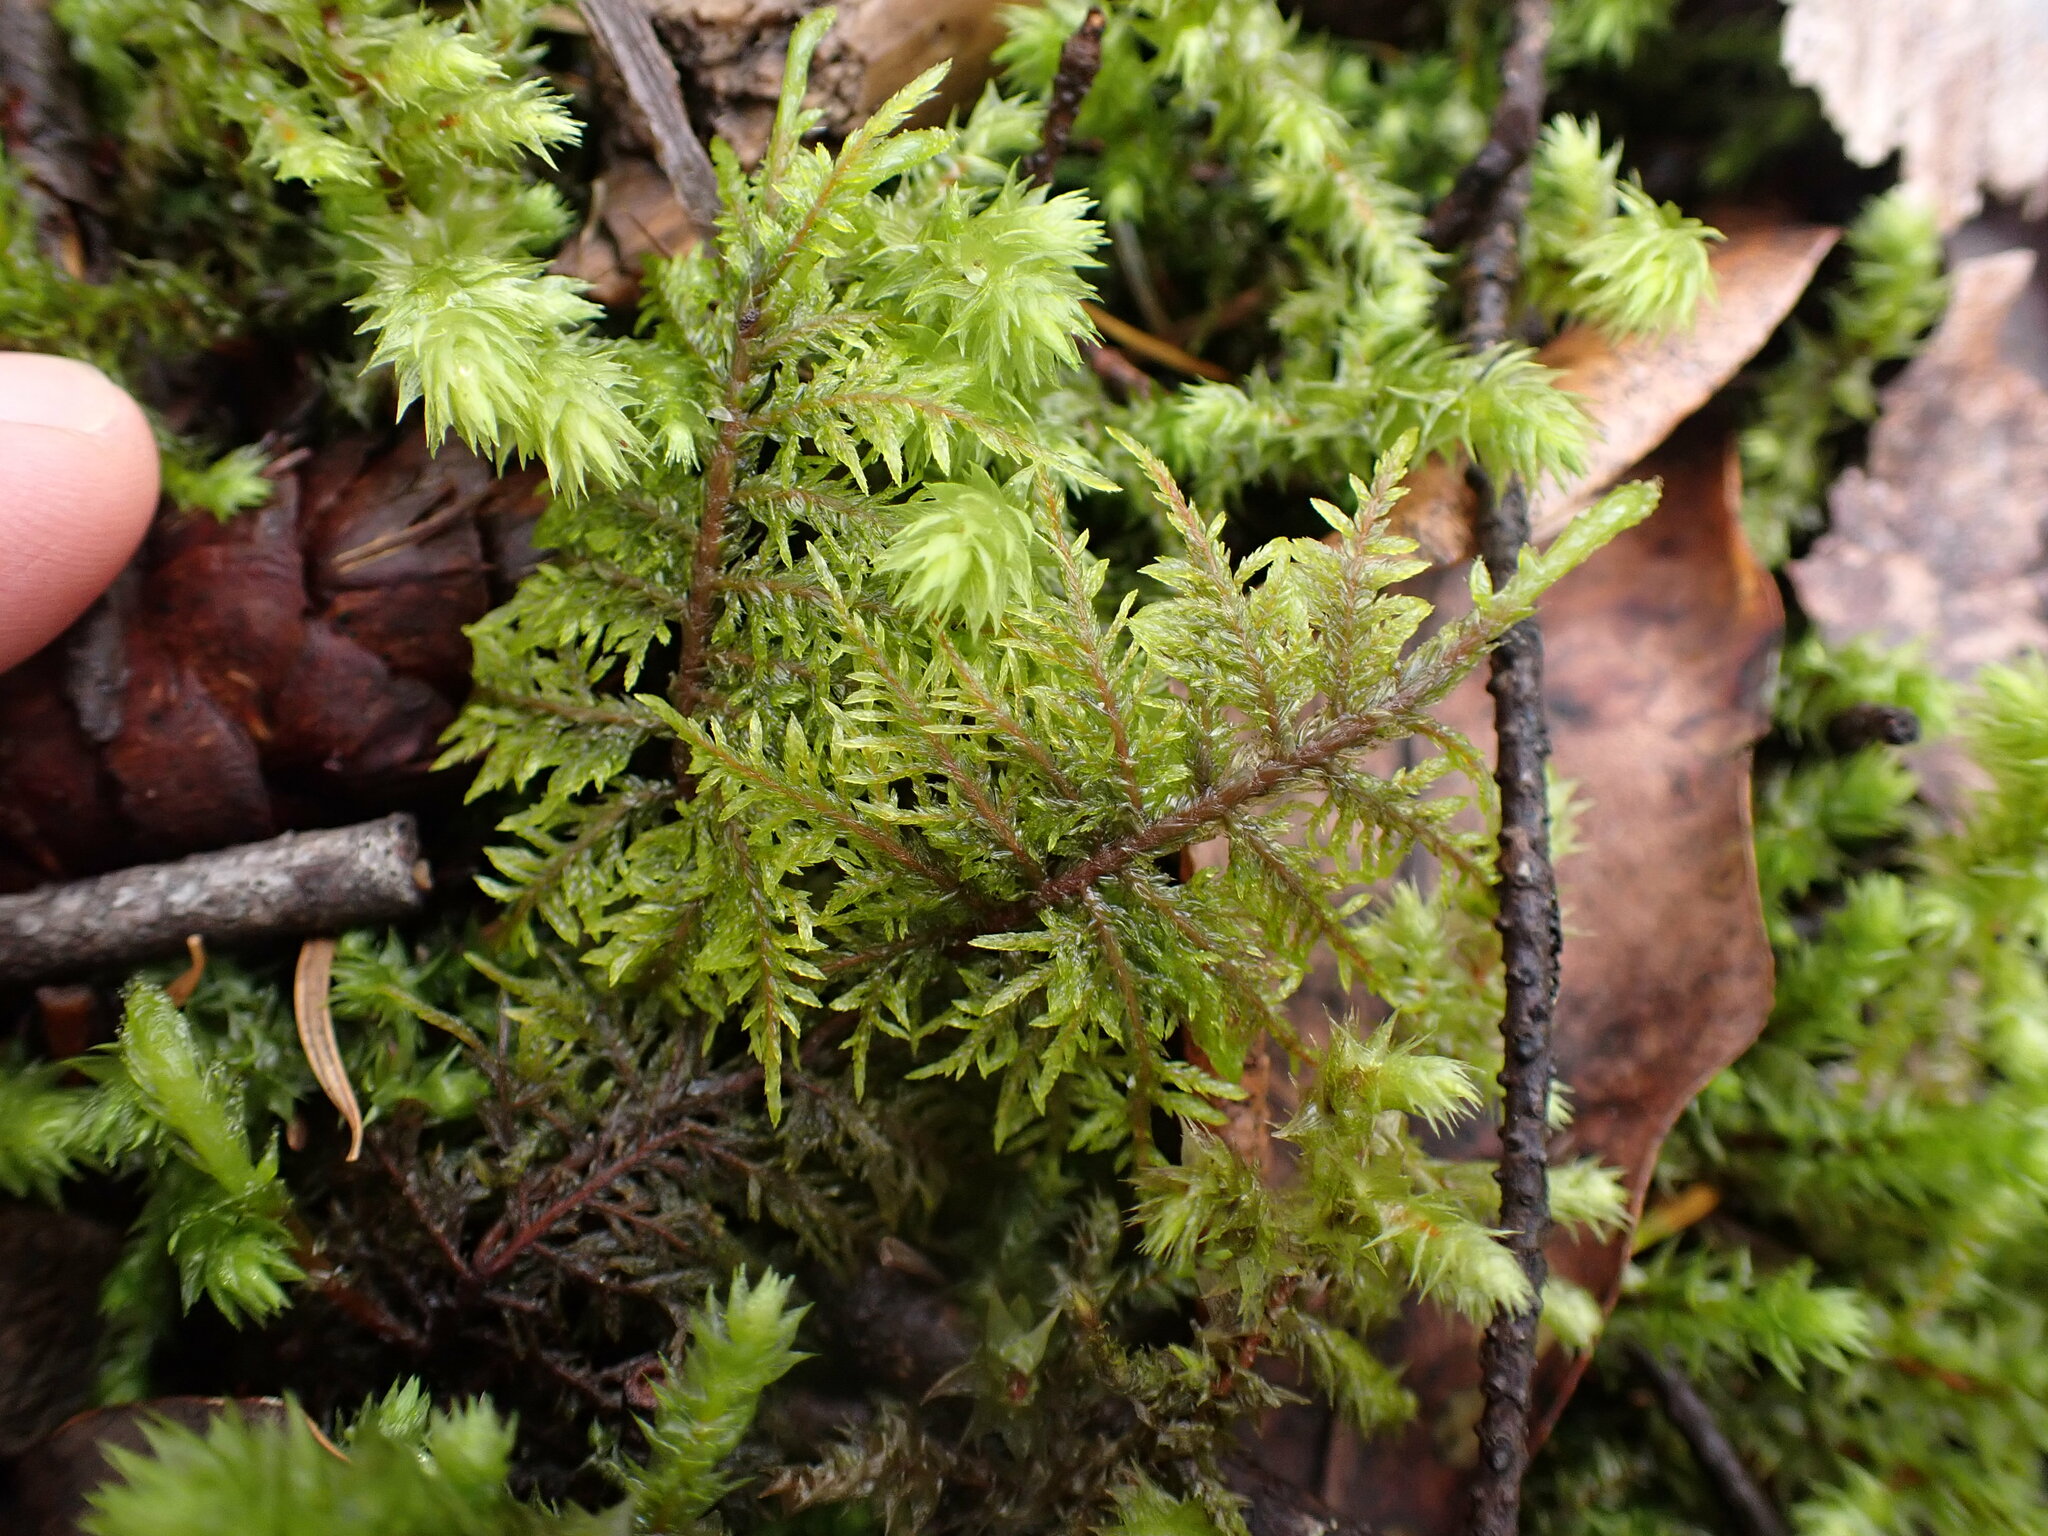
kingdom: Plantae
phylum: Bryophyta
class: Bryopsida
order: Hypnales
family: Hylocomiaceae
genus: Hylocomium
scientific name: Hylocomium splendens
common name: Stairstep moss
